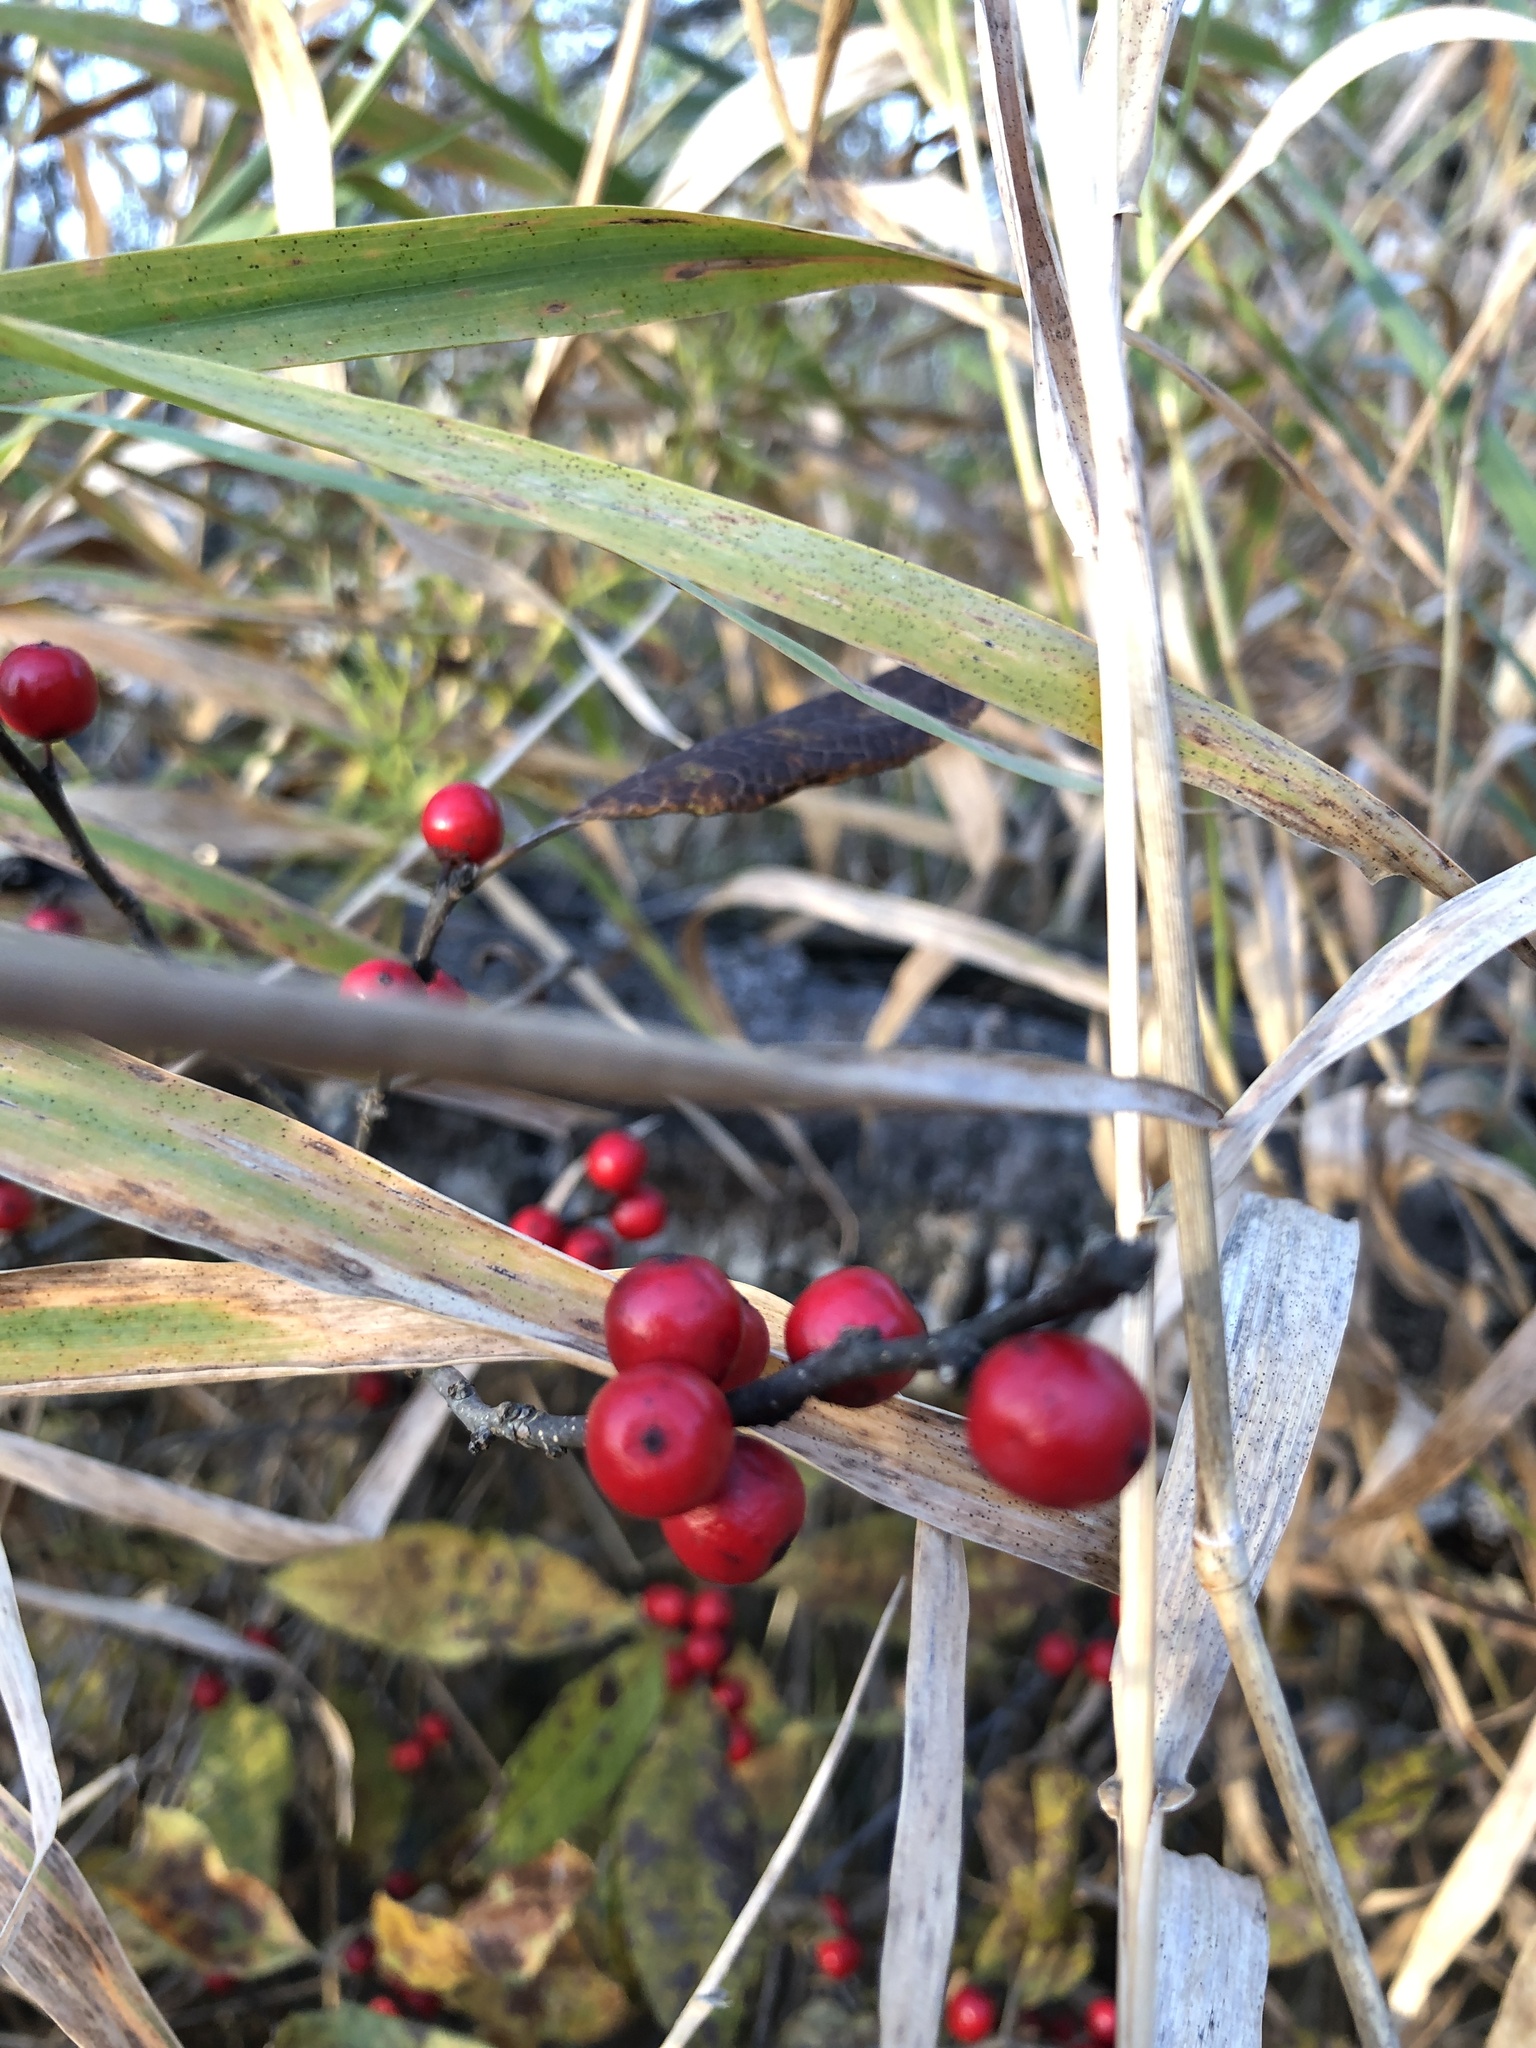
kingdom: Plantae
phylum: Tracheophyta
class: Magnoliopsida
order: Aquifoliales
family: Aquifoliaceae
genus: Ilex
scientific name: Ilex verticillata
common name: Virginia winterberry
